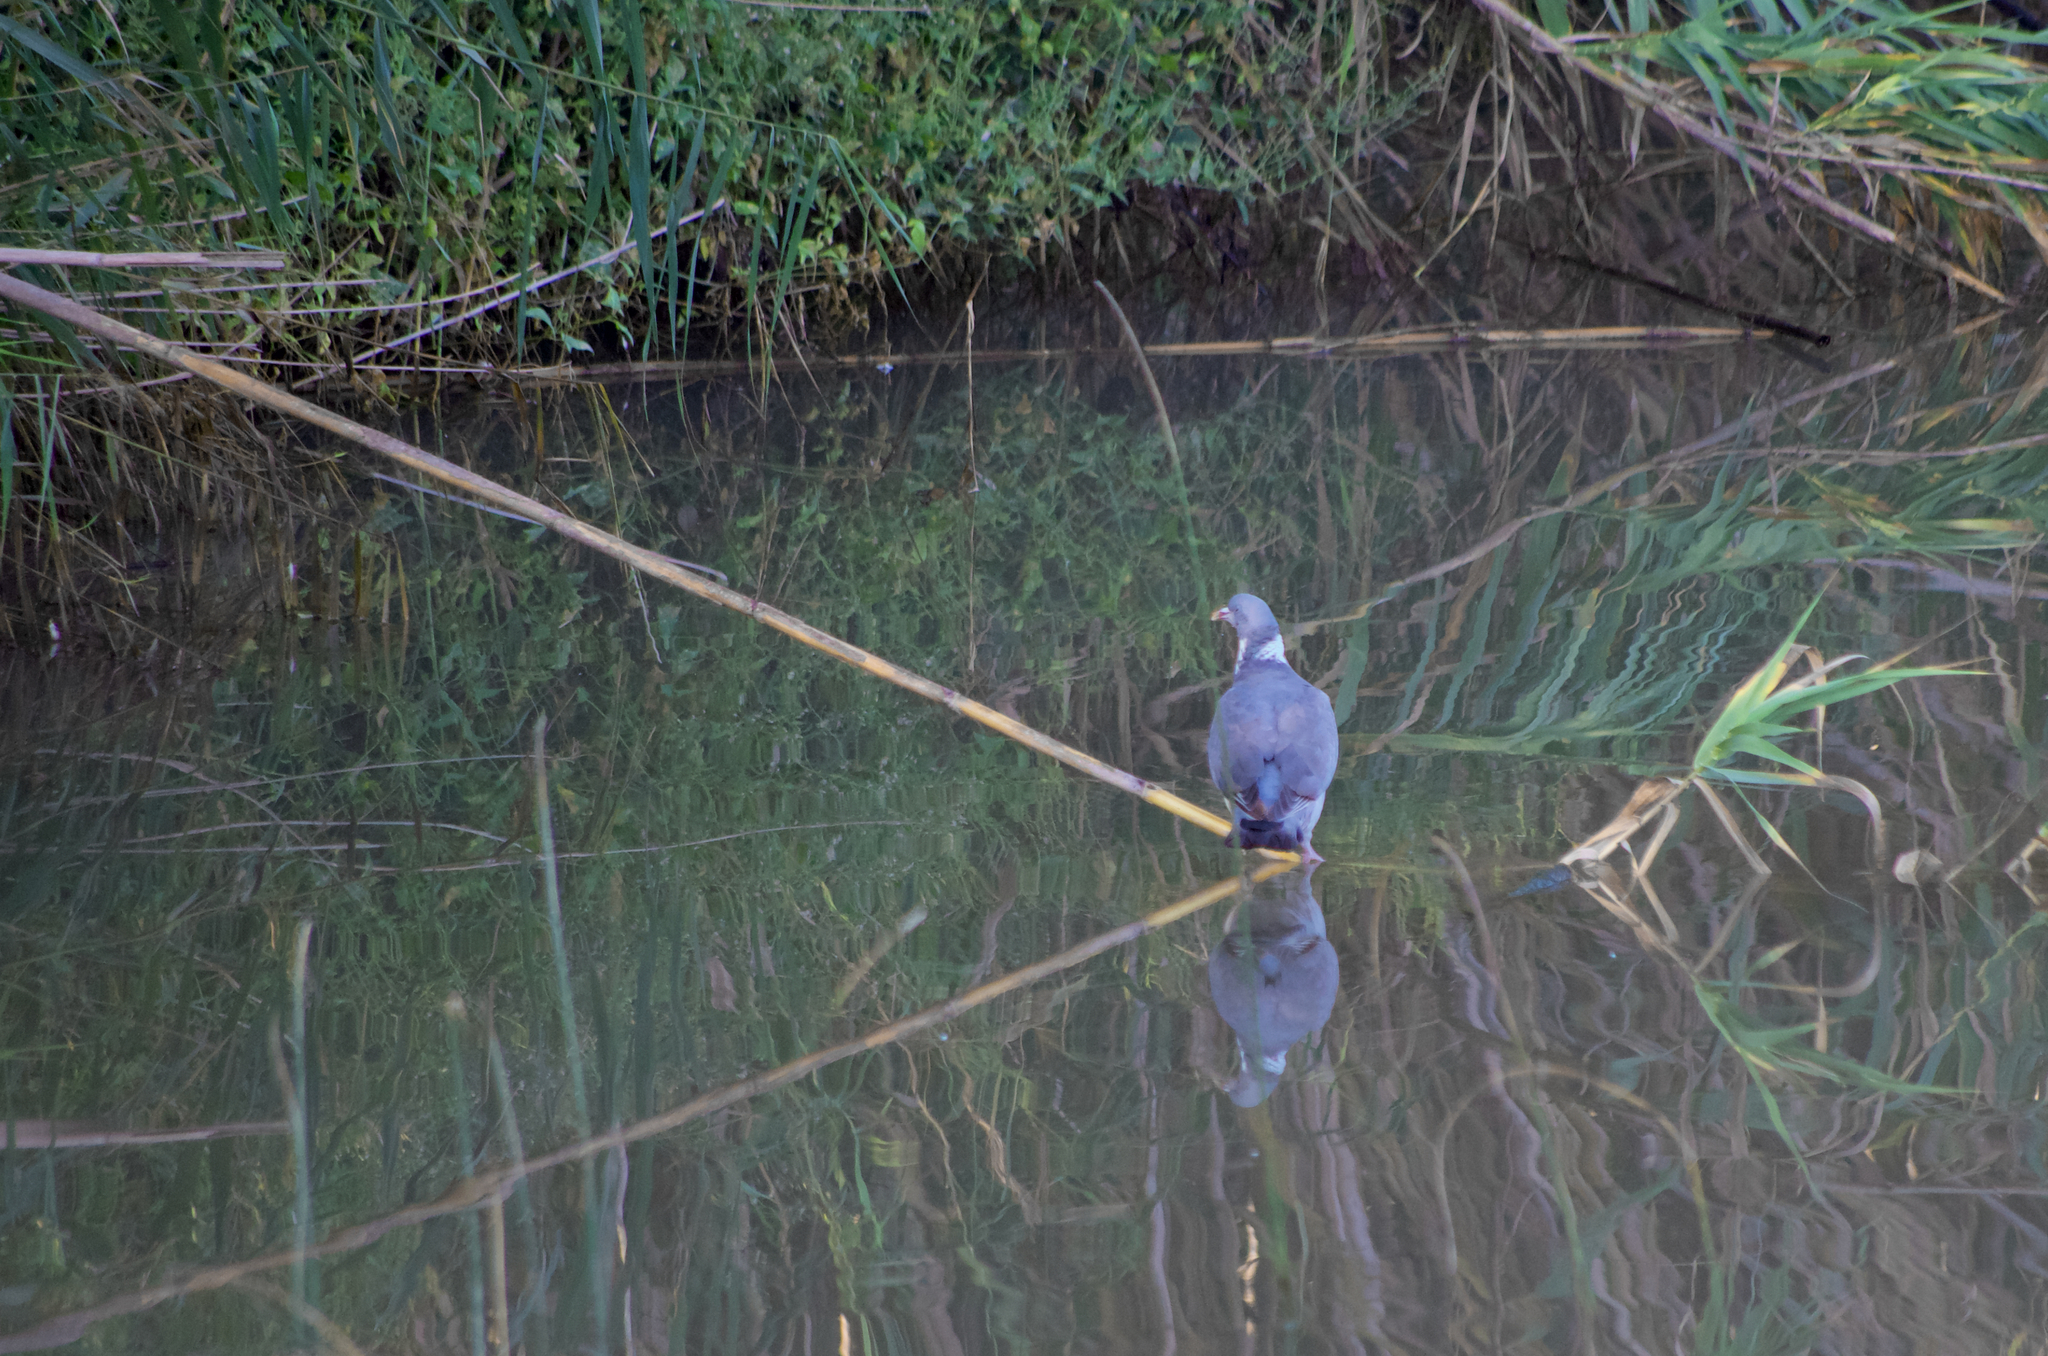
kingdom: Animalia
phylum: Chordata
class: Aves
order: Columbiformes
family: Columbidae
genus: Columba
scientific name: Columba palumbus
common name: Common wood pigeon
